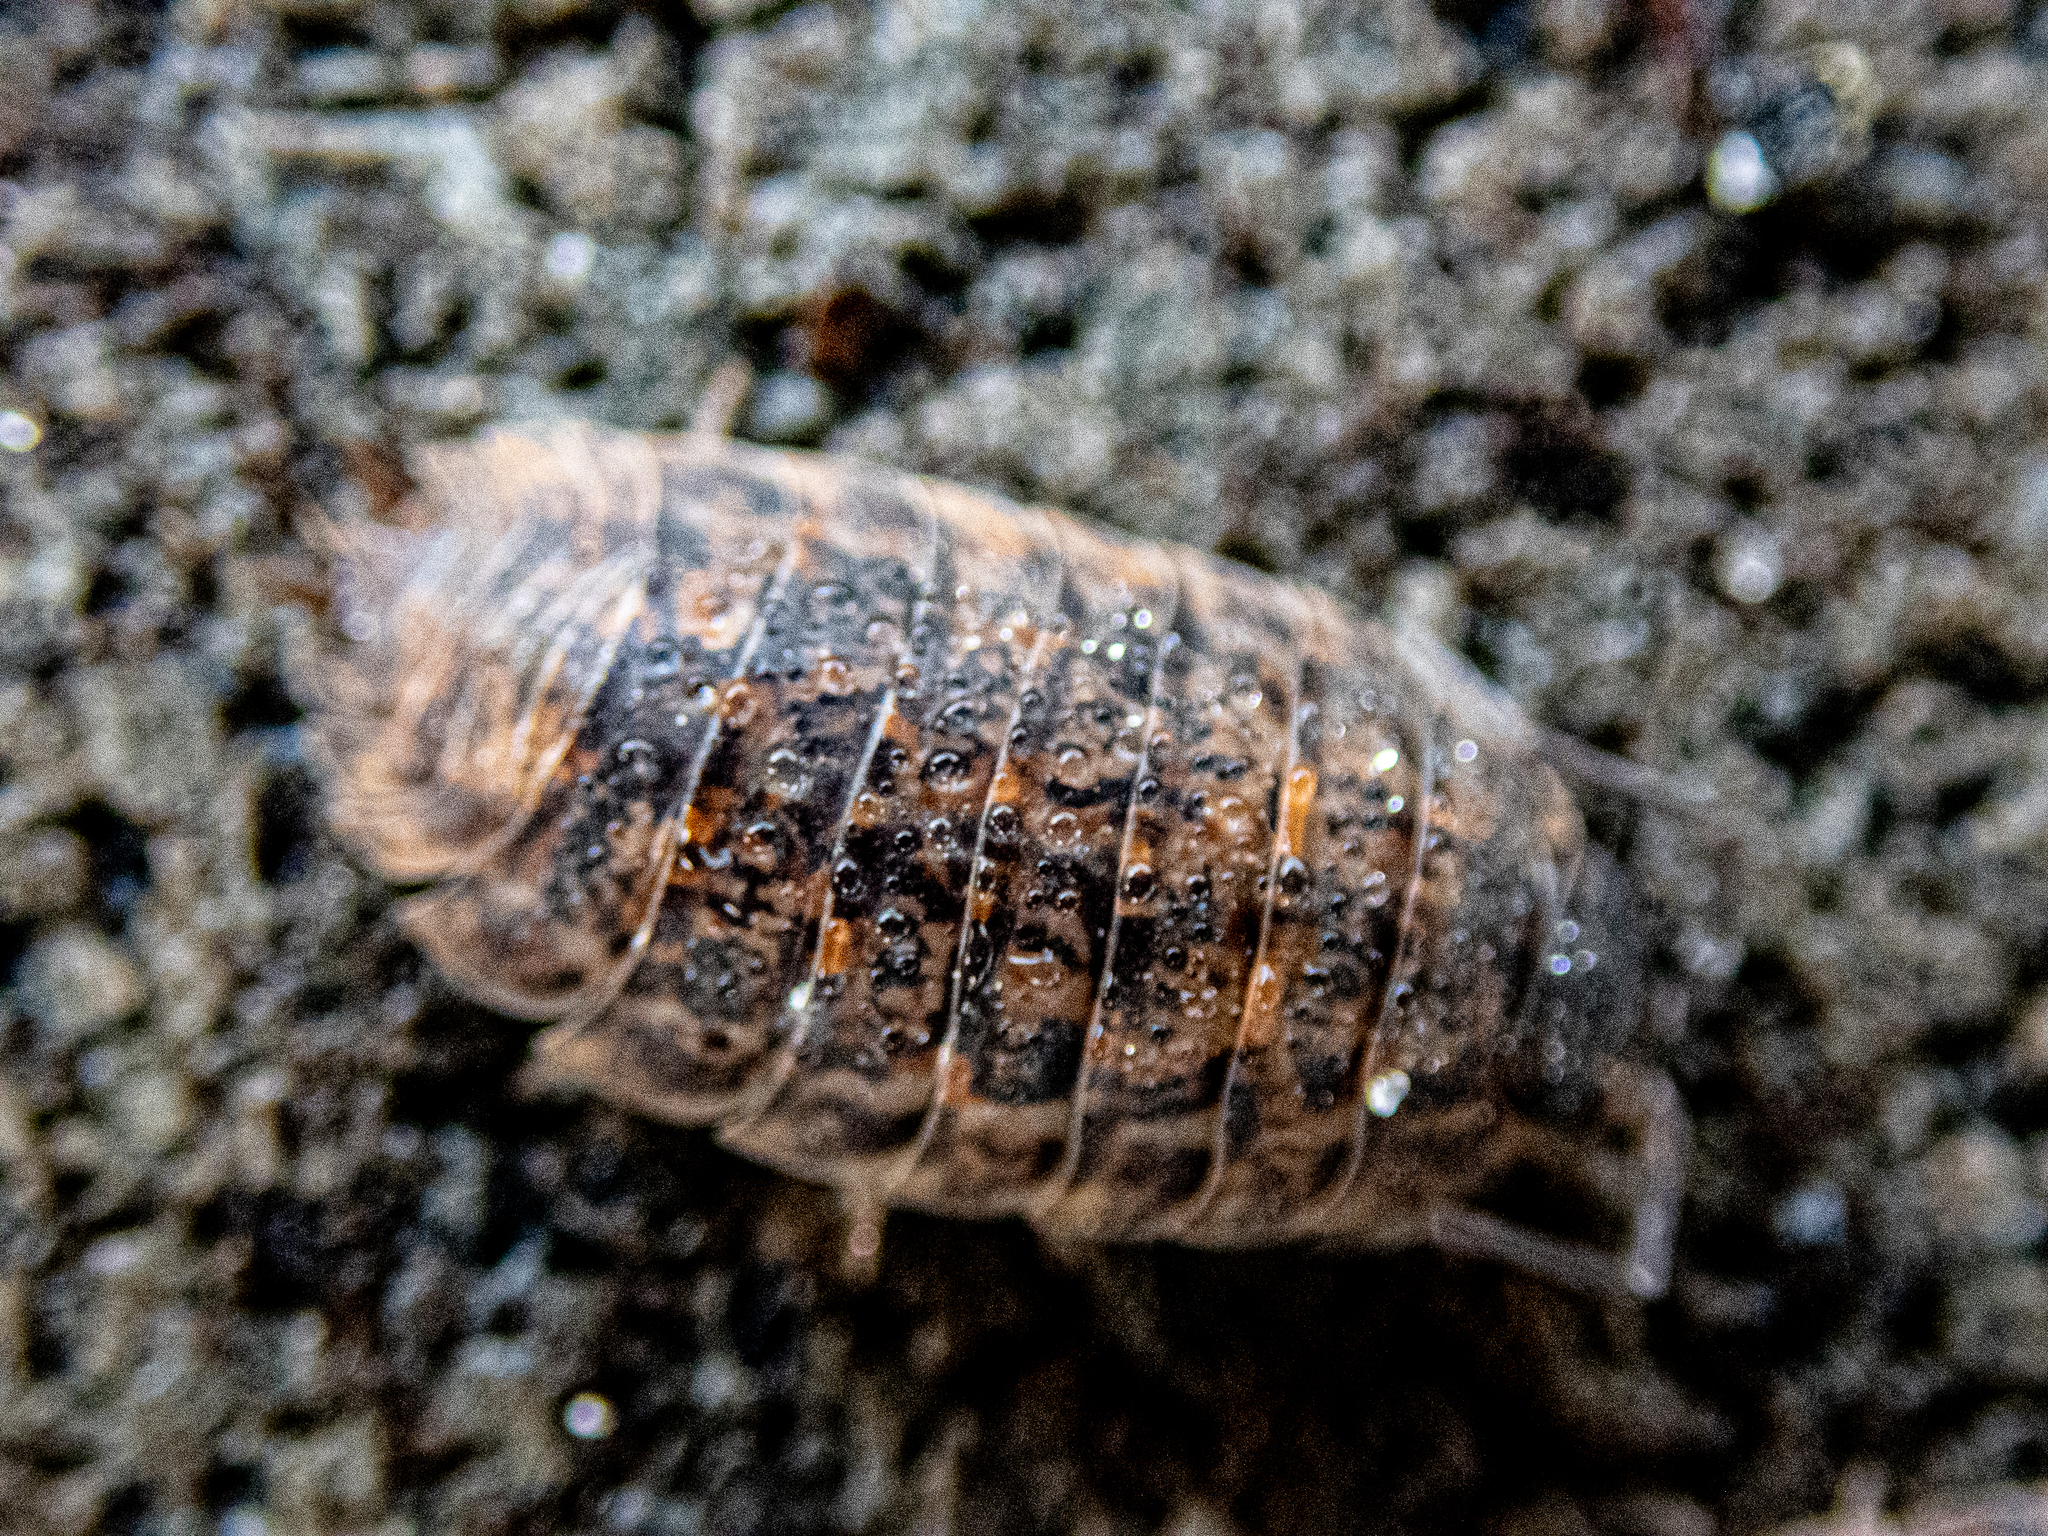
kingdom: Animalia
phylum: Arthropoda
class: Malacostraca
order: Isopoda
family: Trachelipodidae
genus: Trachelipus
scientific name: Trachelipus rathkii
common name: Isopod
